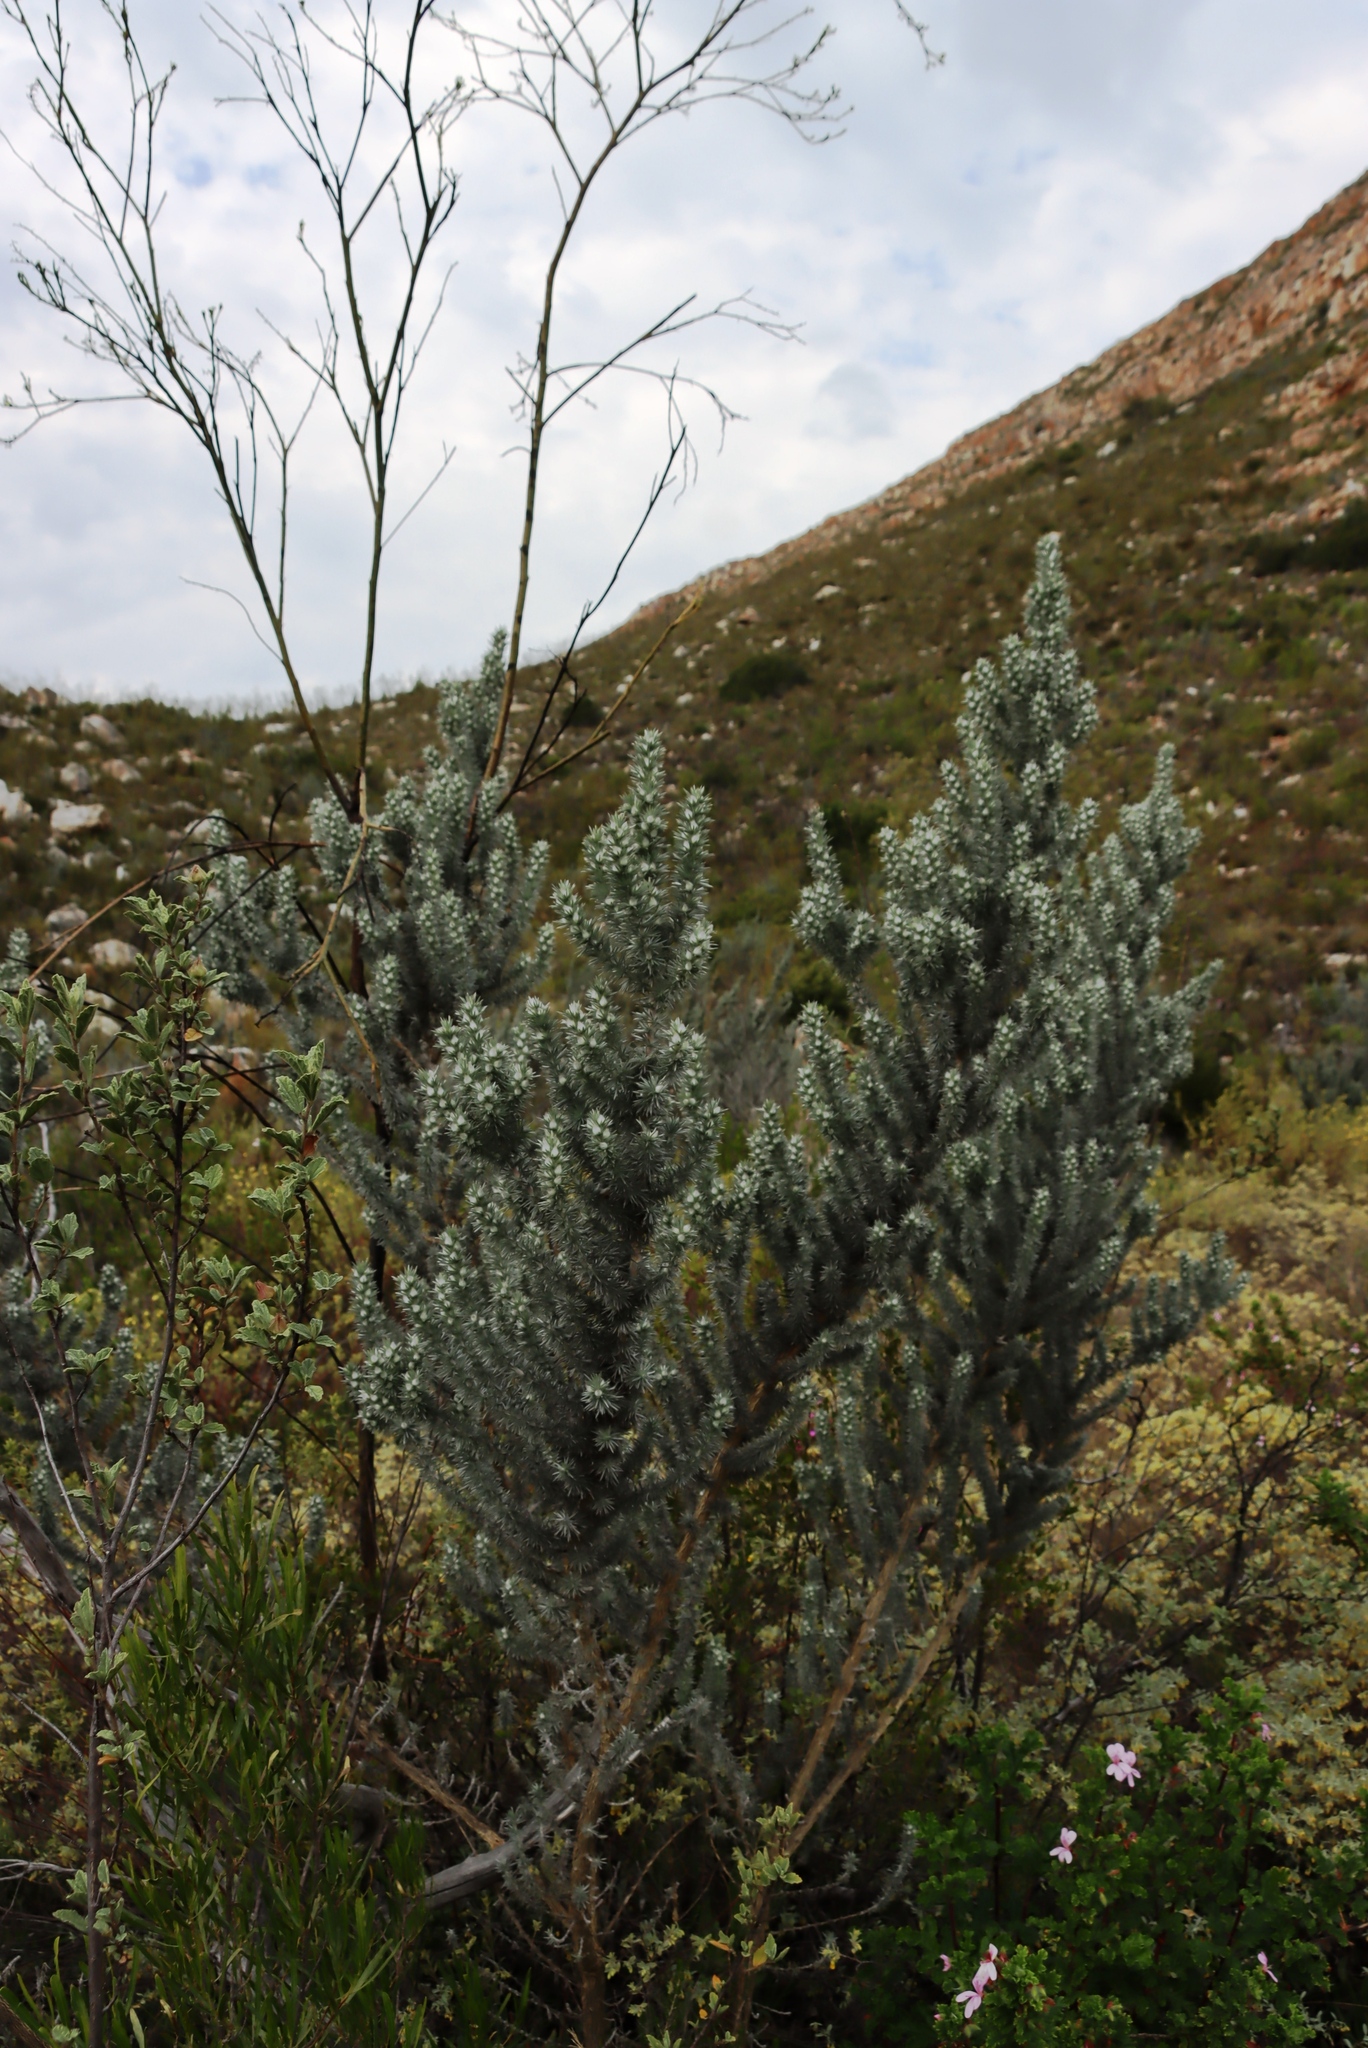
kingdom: Plantae
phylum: Tracheophyta
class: Magnoliopsida
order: Santalales
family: Thesiaceae
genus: Thesium
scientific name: Thesium strictum
